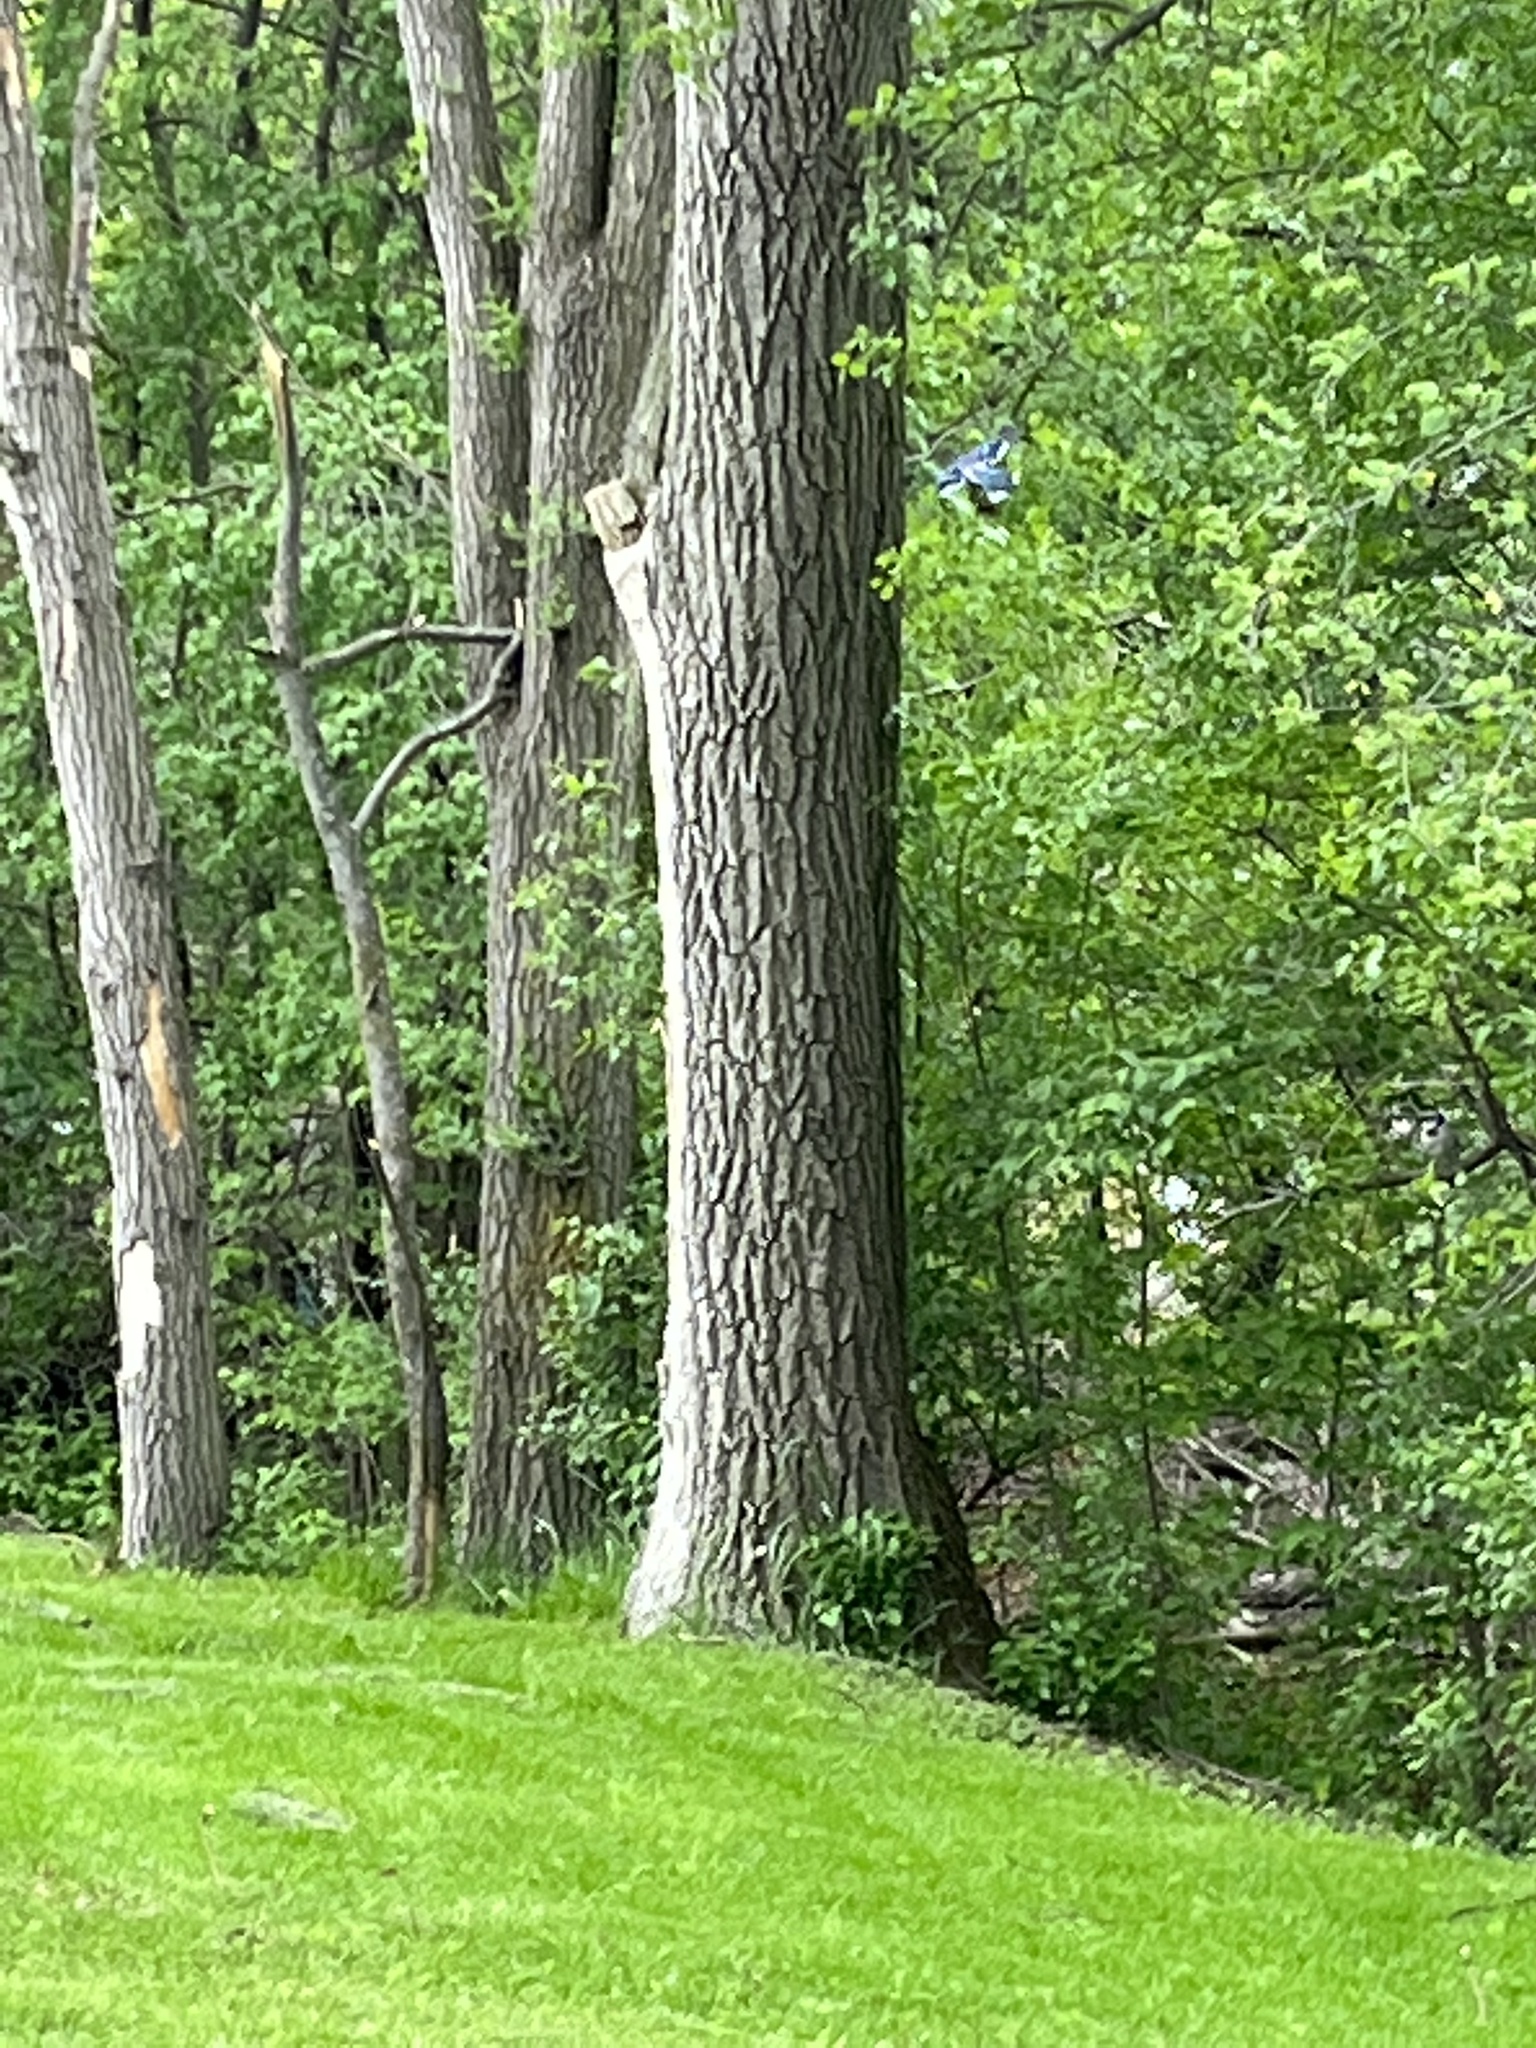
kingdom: Animalia
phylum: Chordata
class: Aves
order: Passeriformes
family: Corvidae
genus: Cyanocitta
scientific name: Cyanocitta cristata
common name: Blue jay
